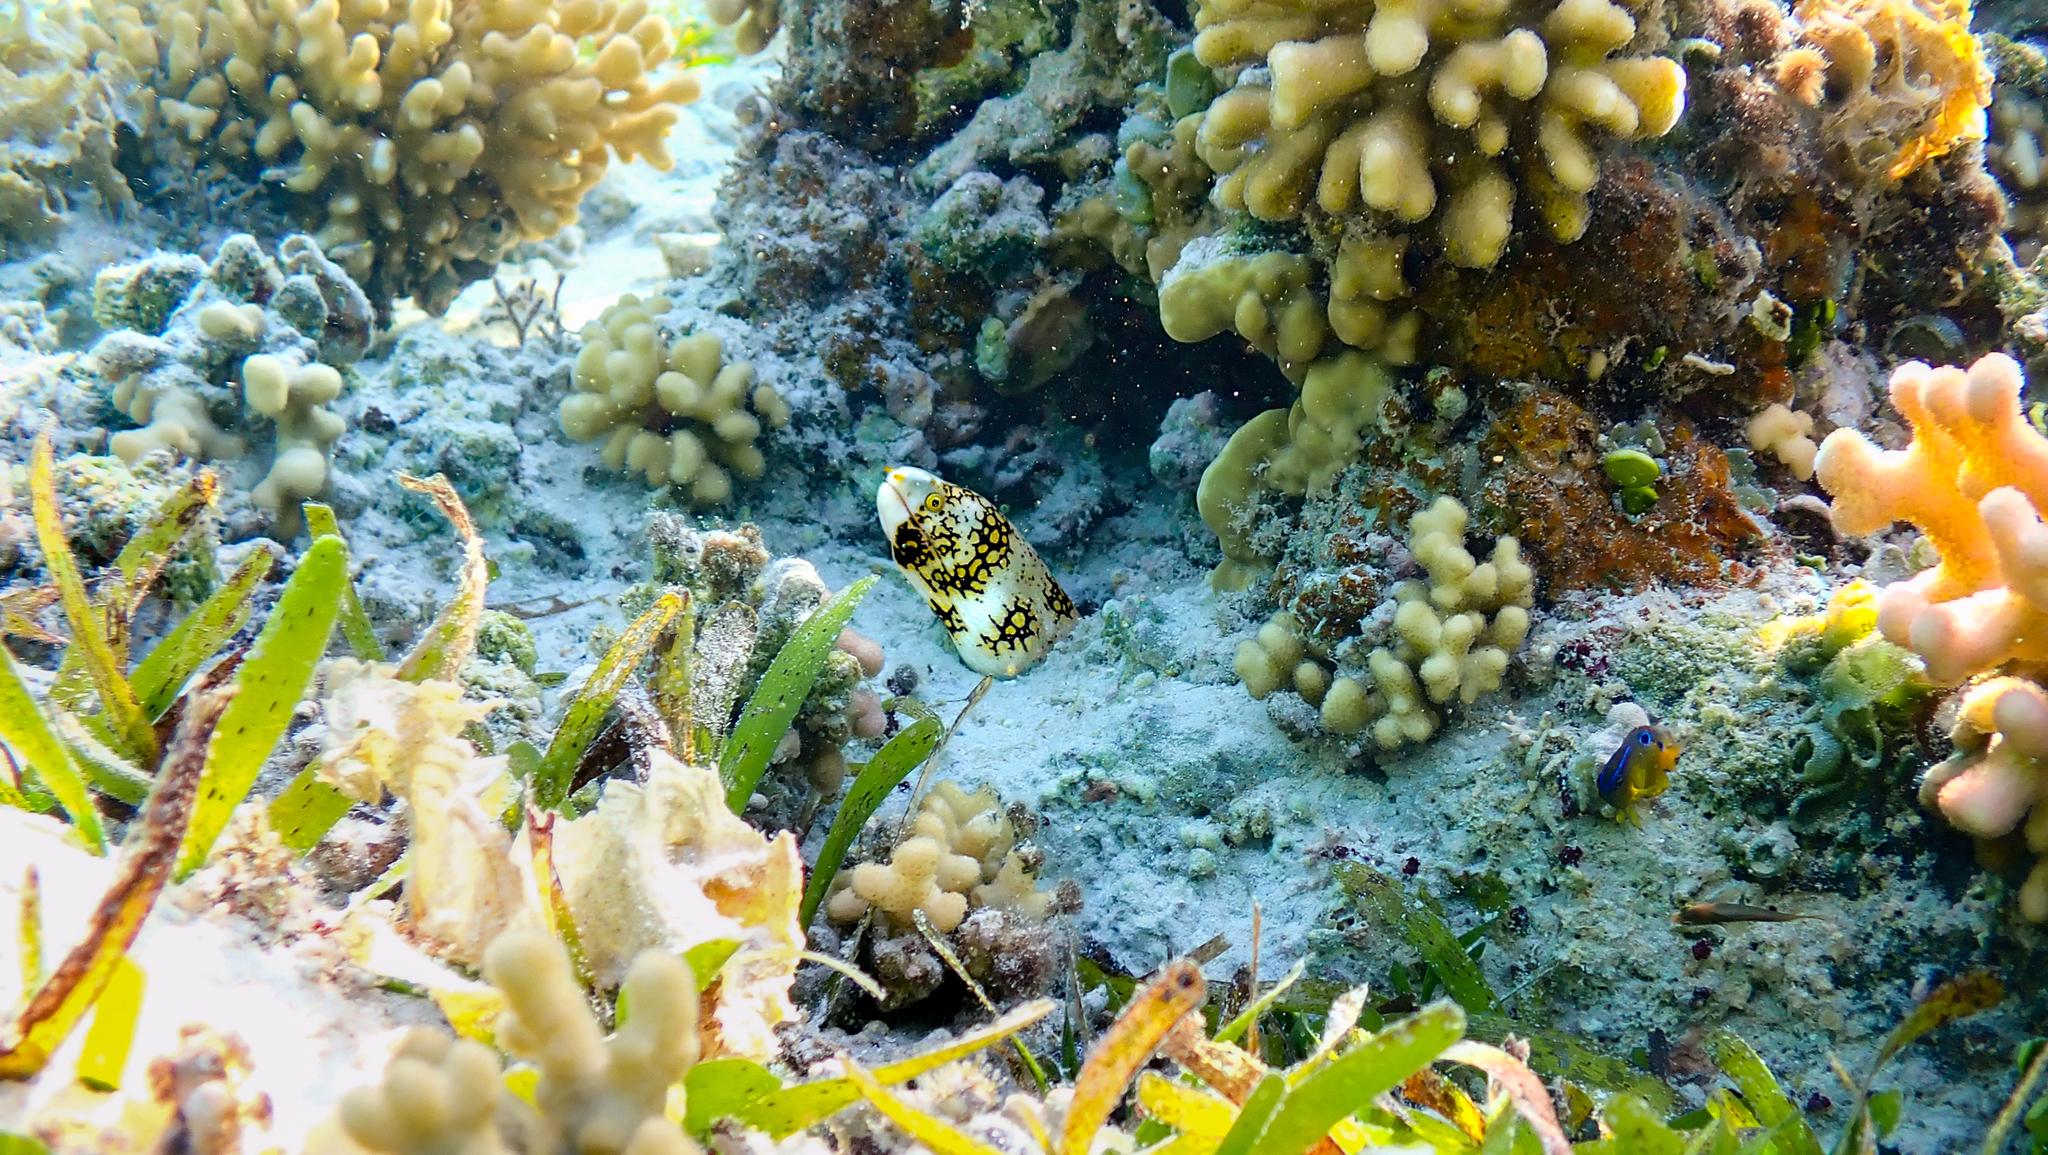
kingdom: Animalia
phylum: Chordata
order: Anguilliformes
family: Muraenidae
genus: Echidna
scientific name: Echidna nebulosa
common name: Snowflake moray
